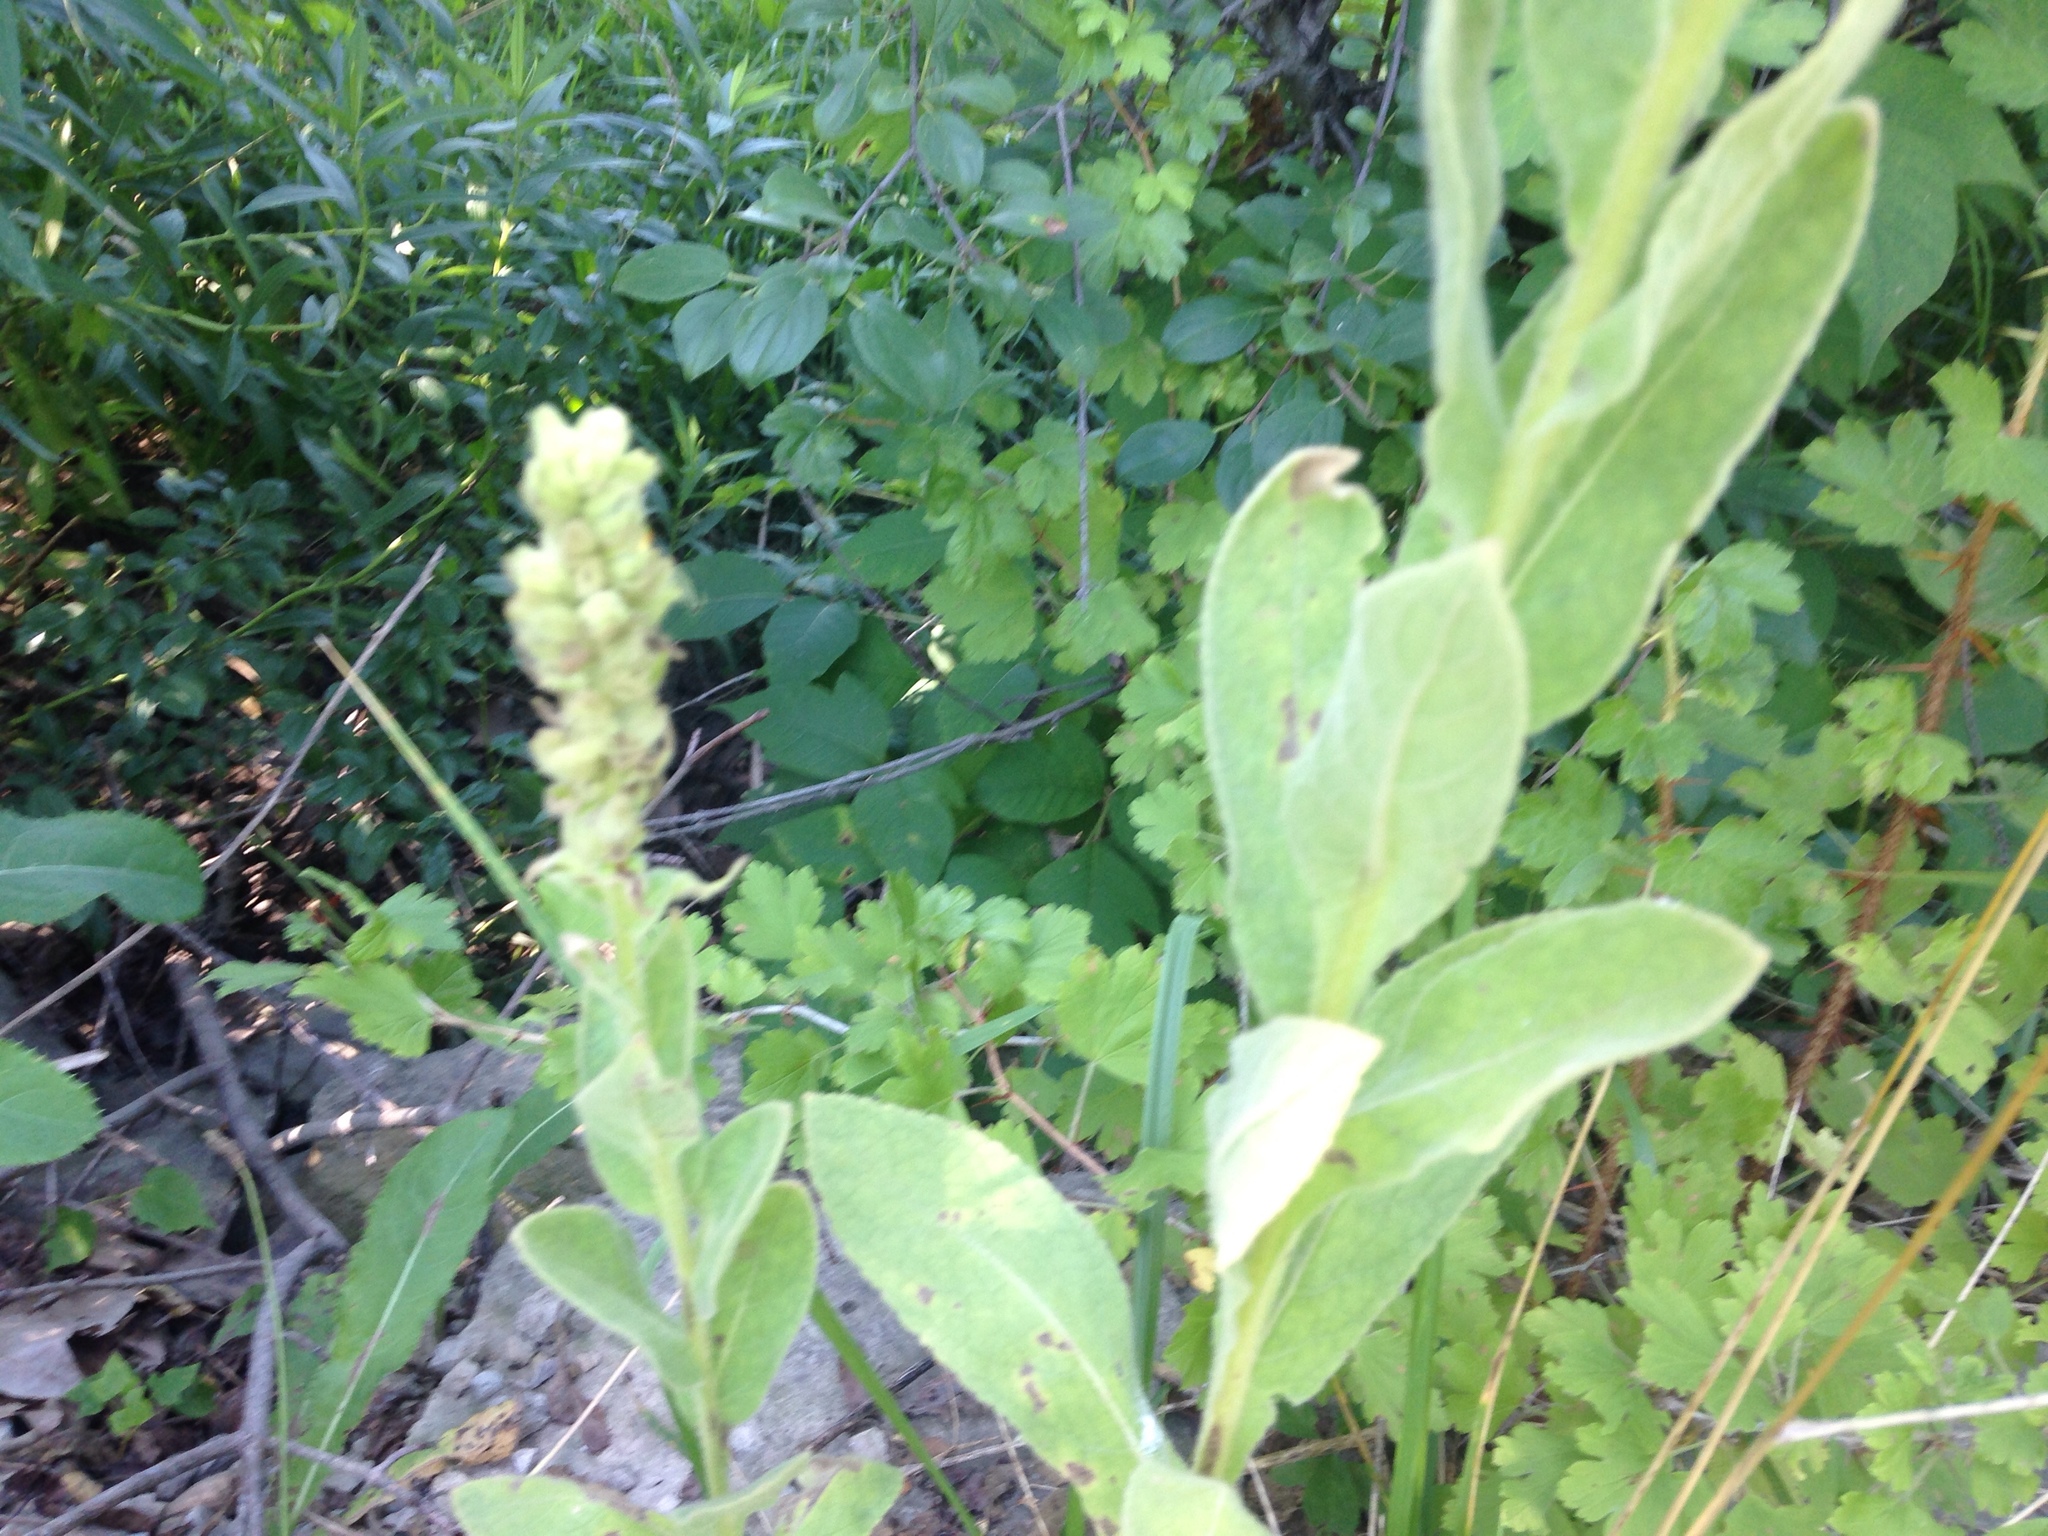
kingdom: Plantae
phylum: Tracheophyta
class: Magnoliopsida
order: Lamiales
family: Scrophulariaceae
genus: Verbascum
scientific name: Verbascum thapsus
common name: Common mullein
